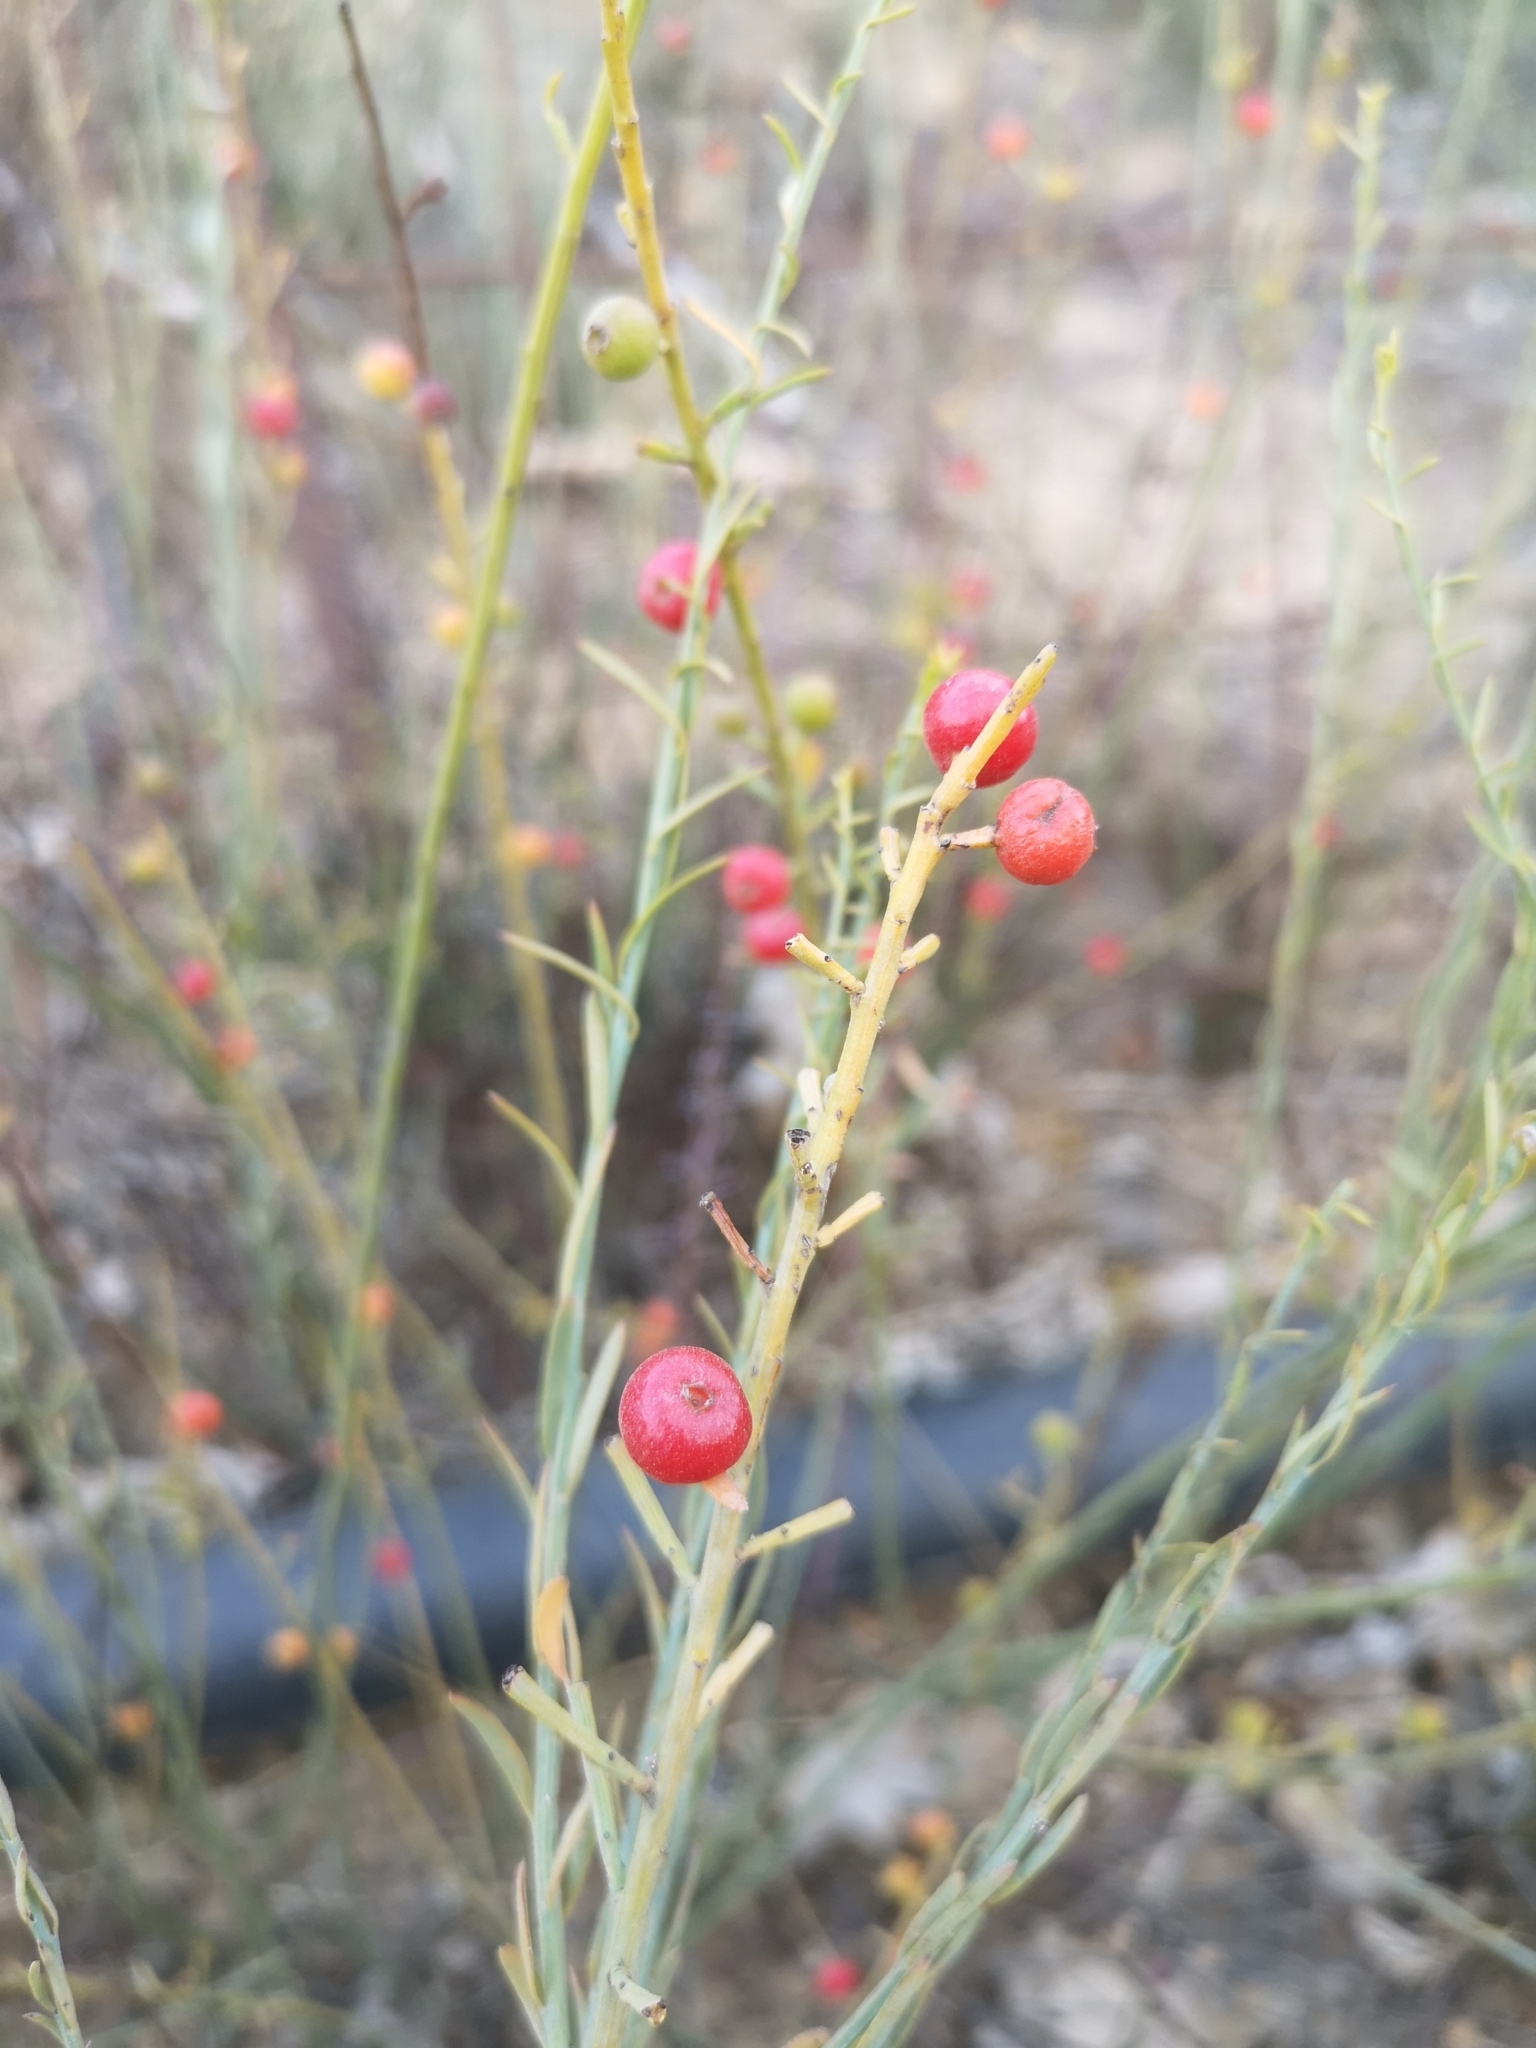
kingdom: Plantae
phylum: Tracheophyta
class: Magnoliopsida
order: Santalales
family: Santalaceae
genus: Osyris
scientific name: Osyris alba
